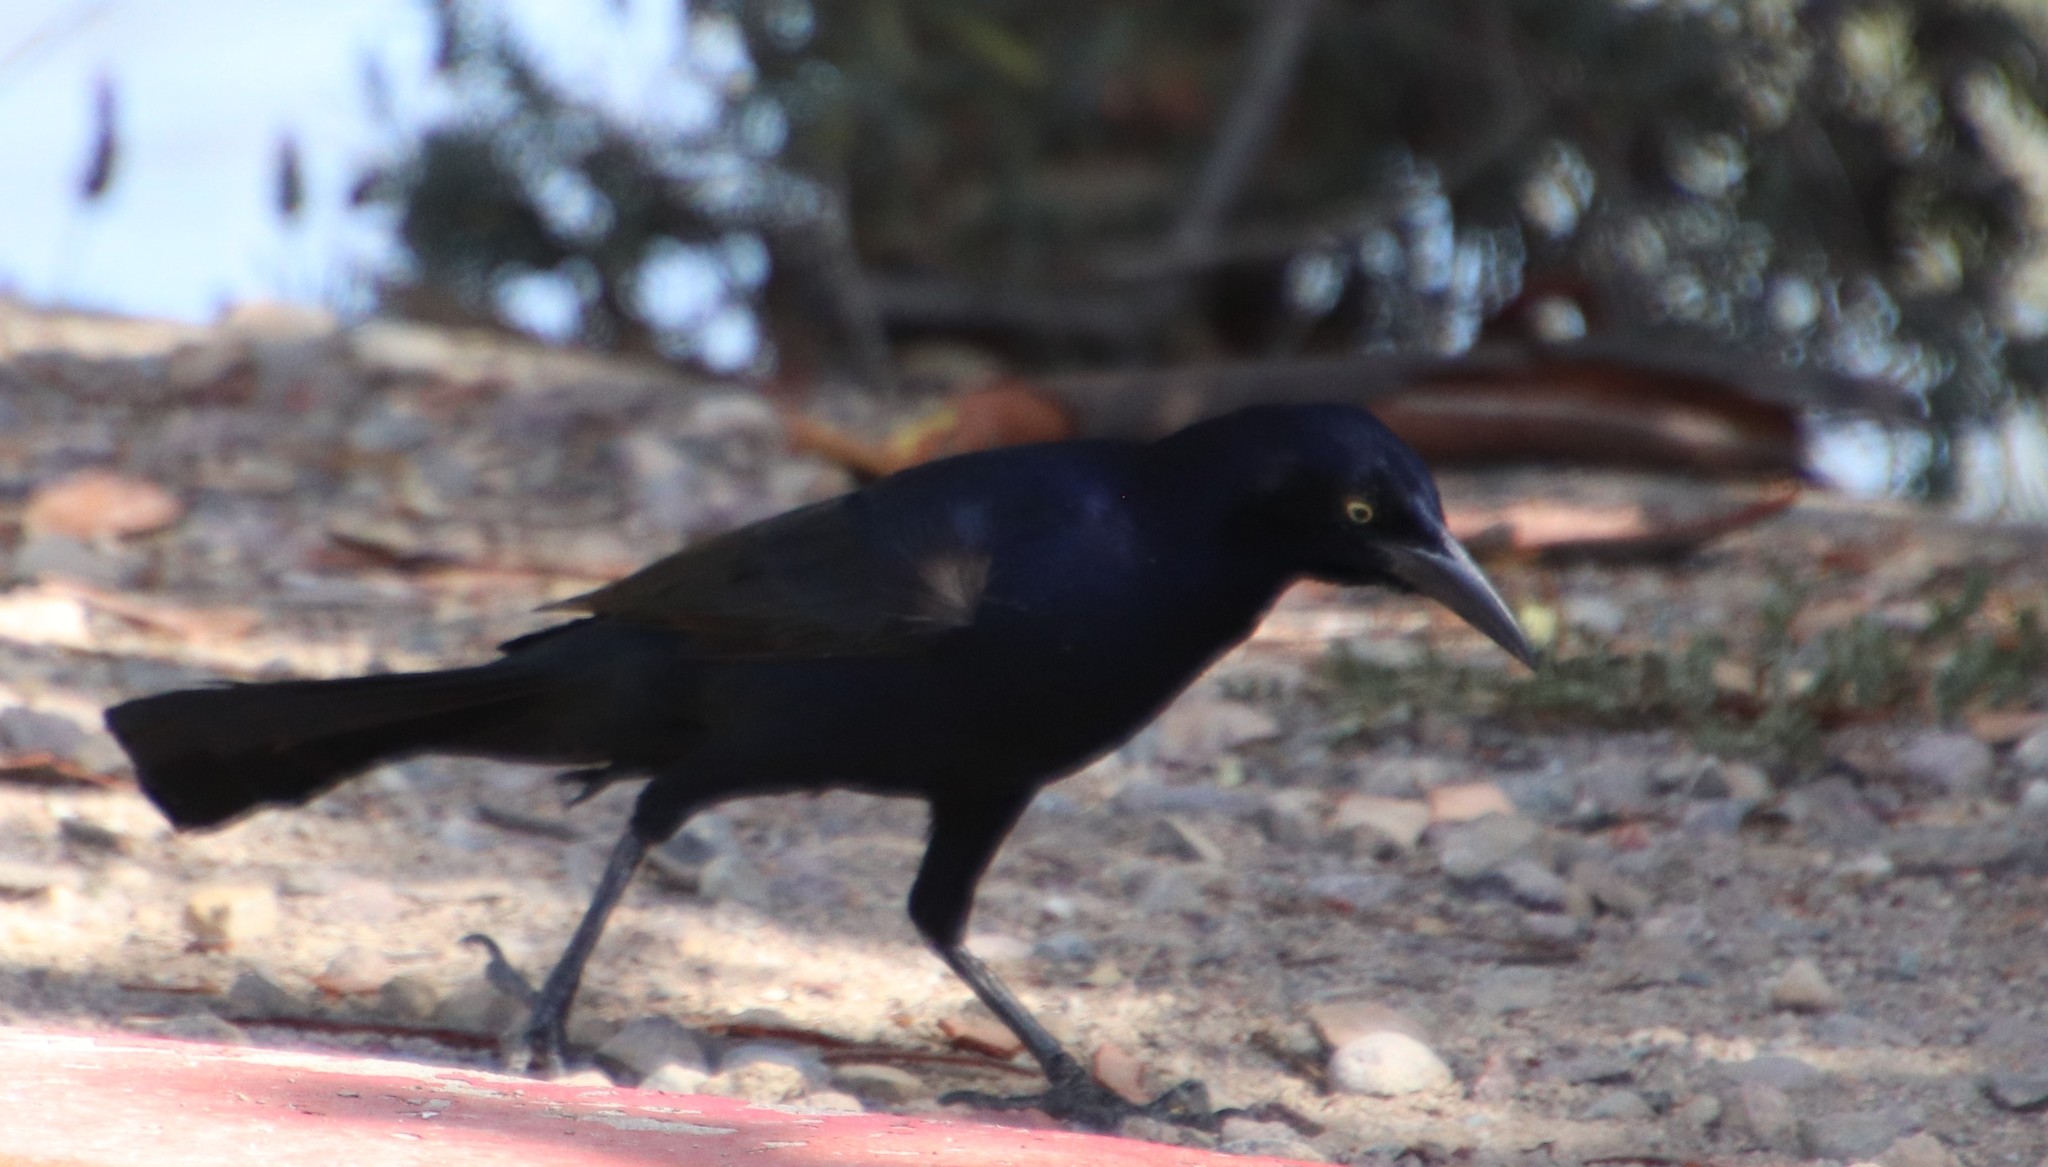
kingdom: Animalia
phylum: Chordata
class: Aves
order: Passeriformes
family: Icteridae
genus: Quiscalus
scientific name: Quiscalus mexicanus
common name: Great-tailed grackle
